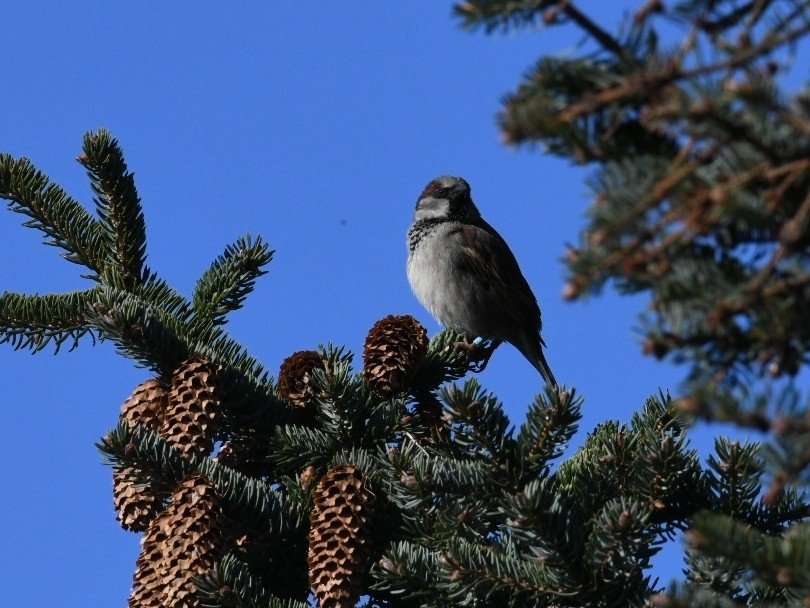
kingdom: Animalia
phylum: Chordata
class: Aves
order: Passeriformes
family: Passeridae
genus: Passer
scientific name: Passer domesticus
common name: House sparrow
